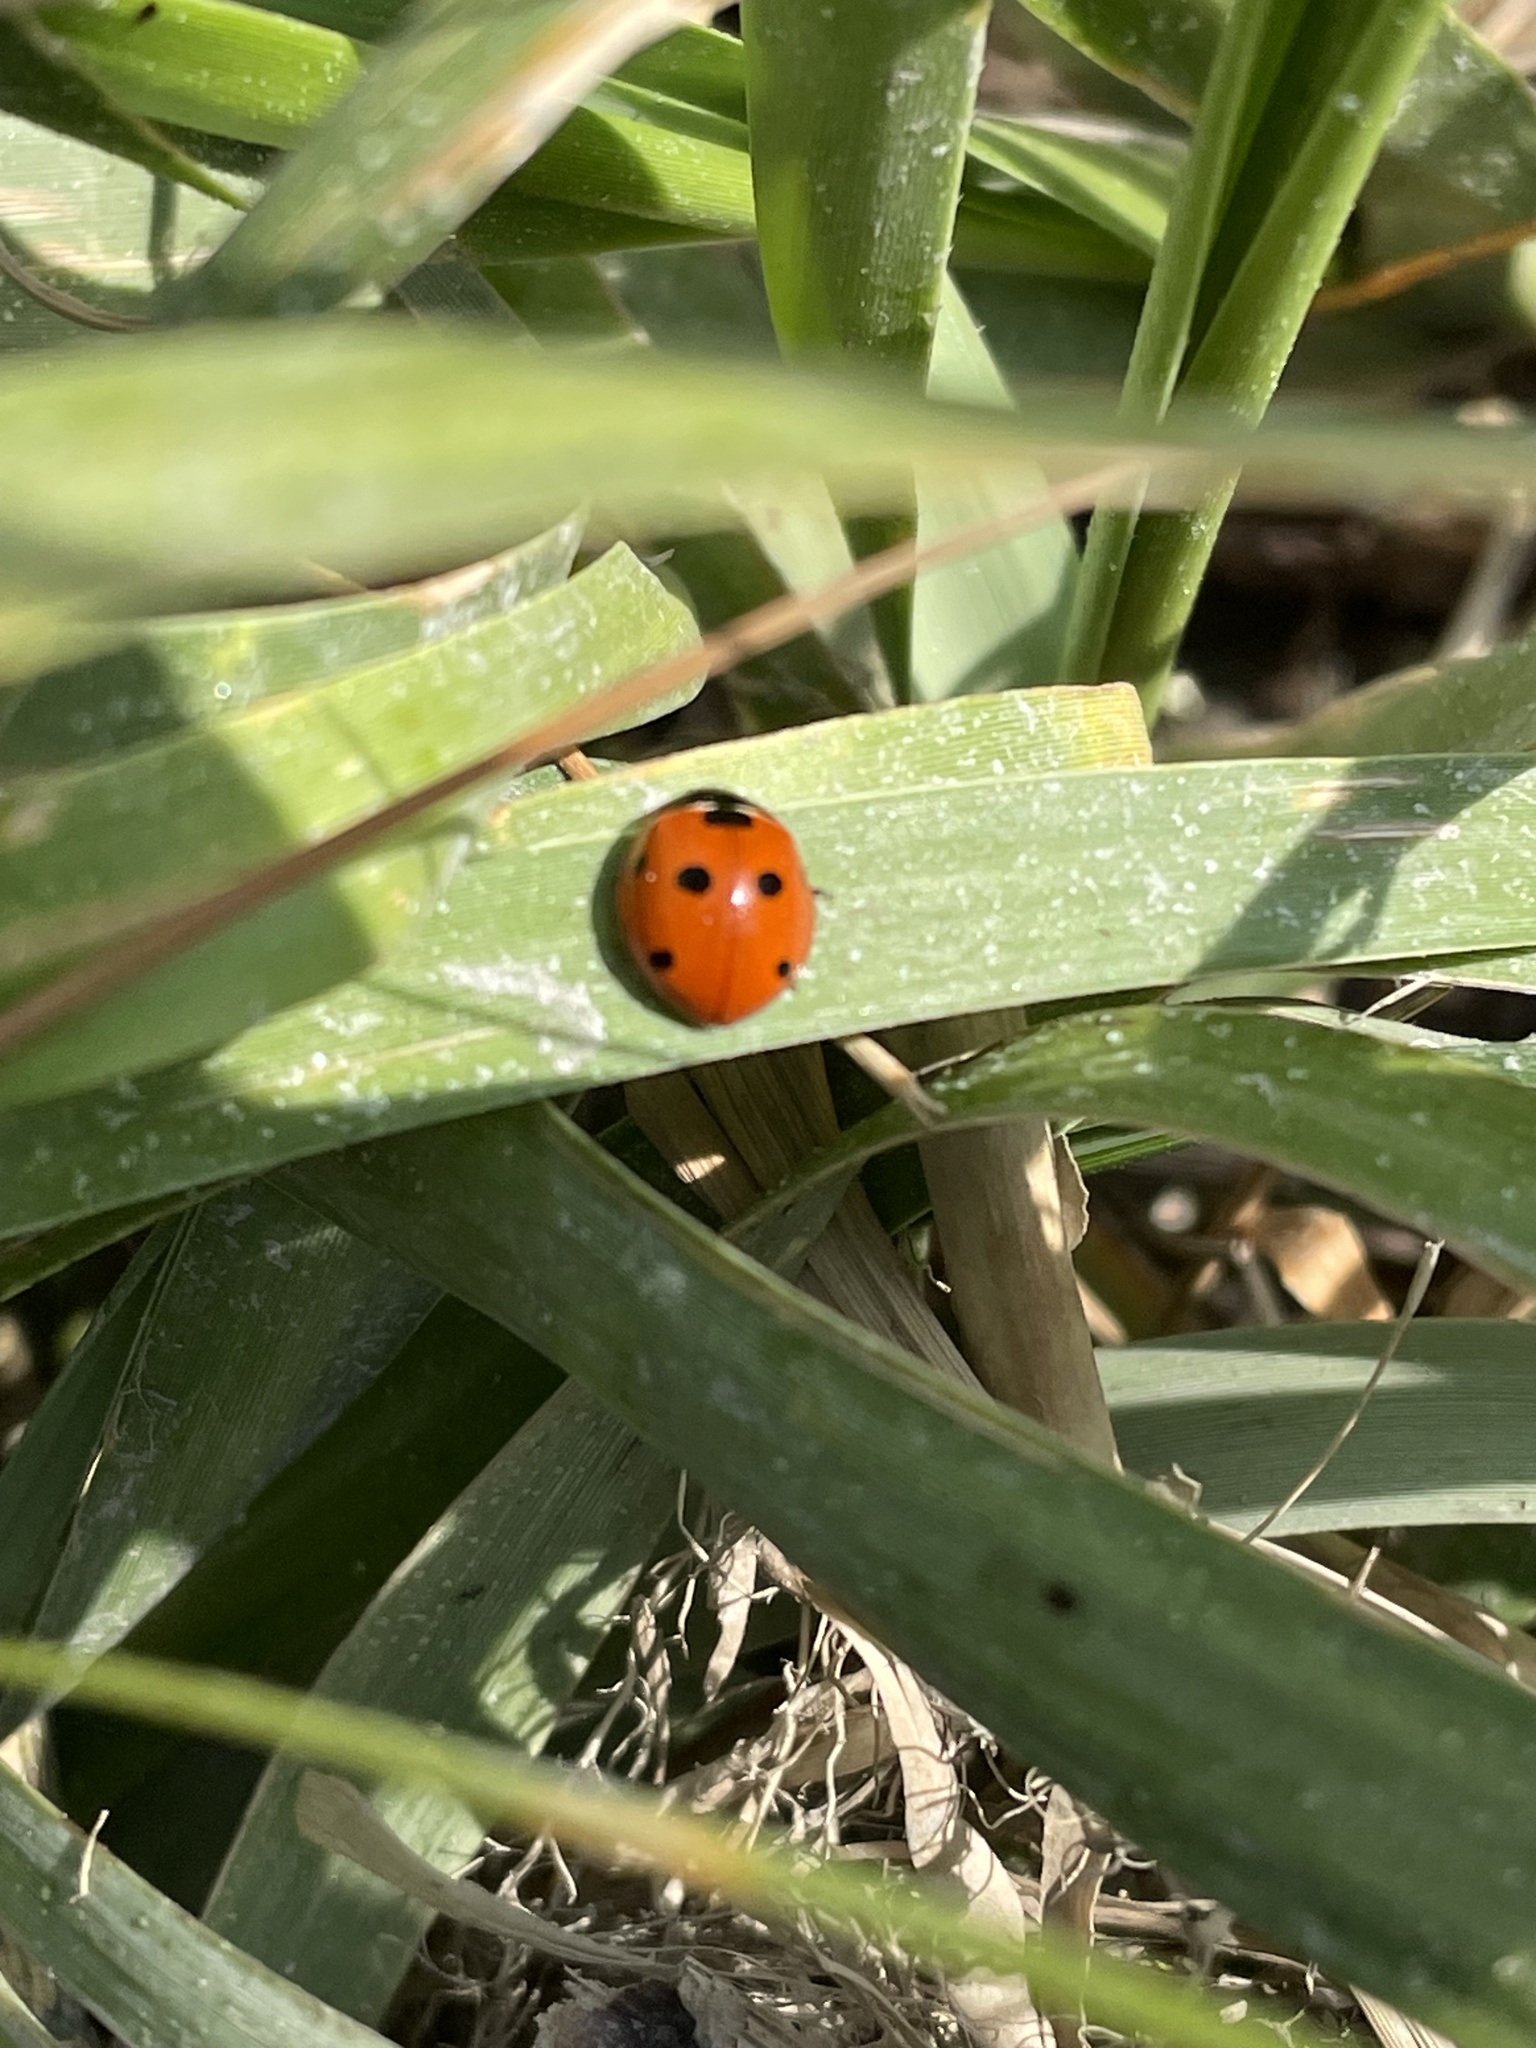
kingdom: Animalia
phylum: Arthropoda
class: Insecta
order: Coleoptera
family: Coccinellidae
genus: Coccinella
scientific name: Coccinella septempunctata
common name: Sevenspotted lady beetle
